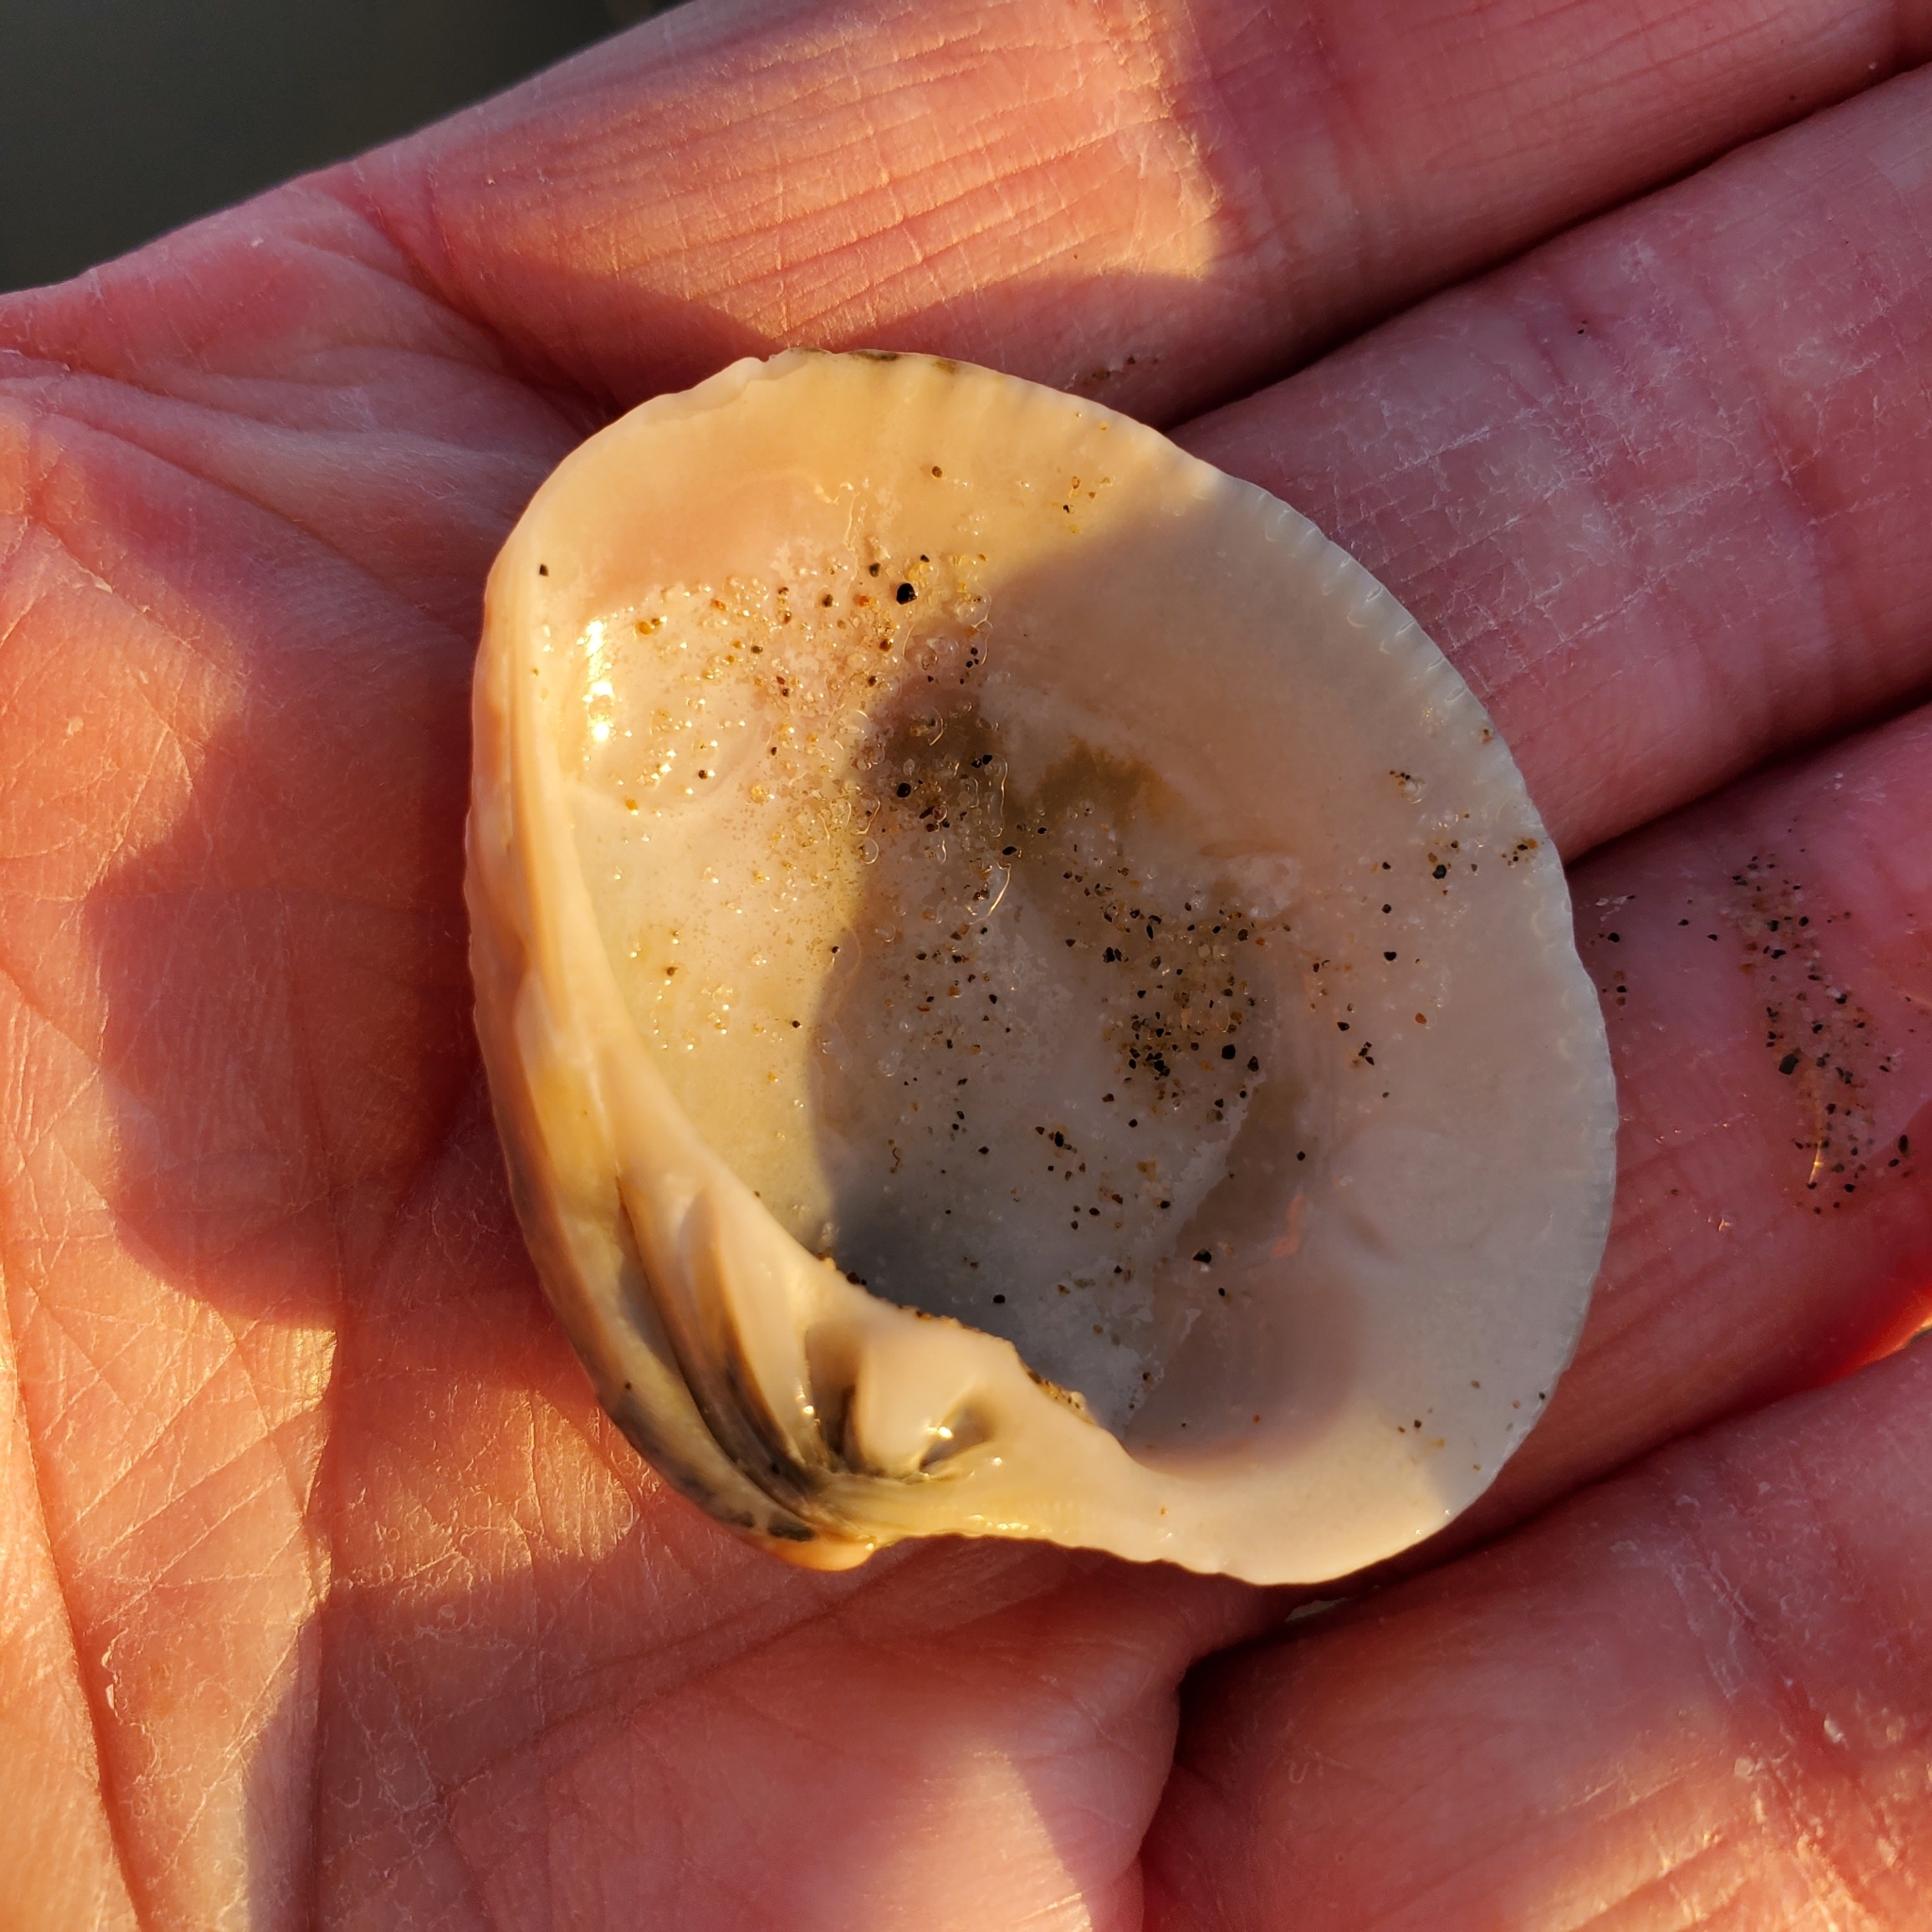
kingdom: Animalia
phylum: Mollusca
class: Bivalvia
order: Venerida
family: Veneridae
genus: Chione
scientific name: Chione californiensis
